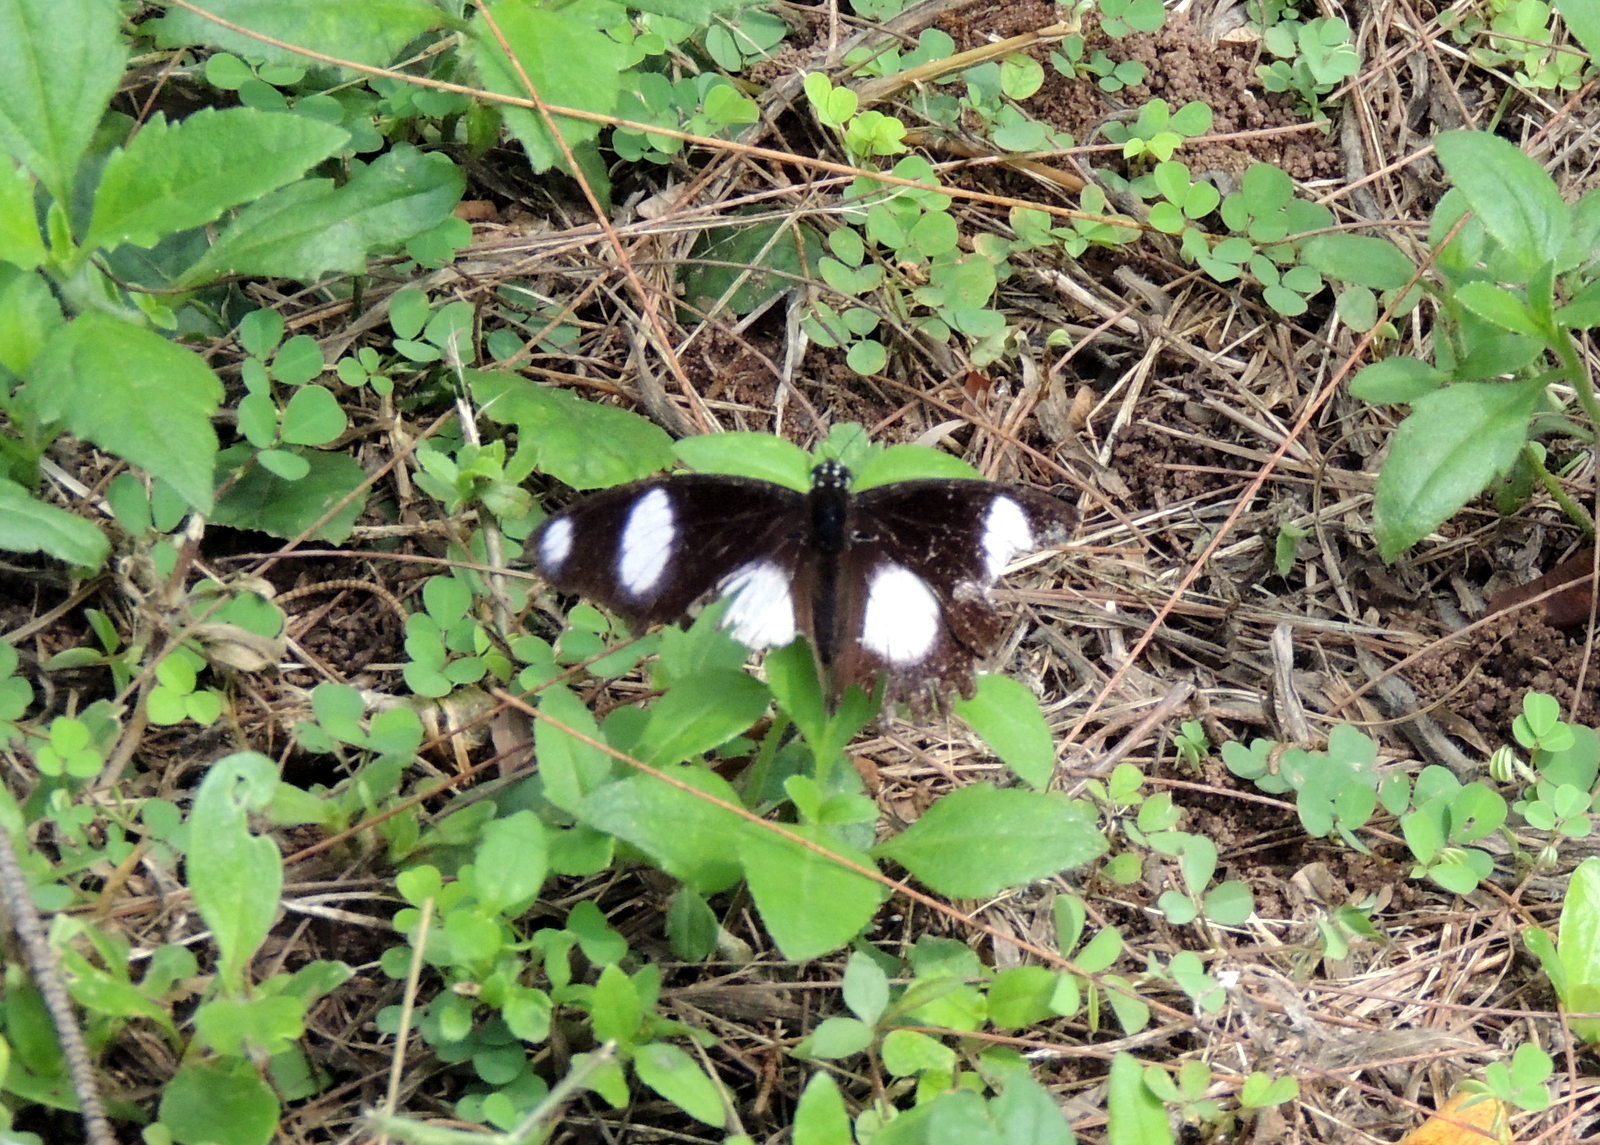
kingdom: Animalia
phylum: Arthropoda
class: Insecta
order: Lepidoptera
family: Nymphalidae
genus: Hypolimnas
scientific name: Hypolimnas misippus
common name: False plain tiger
